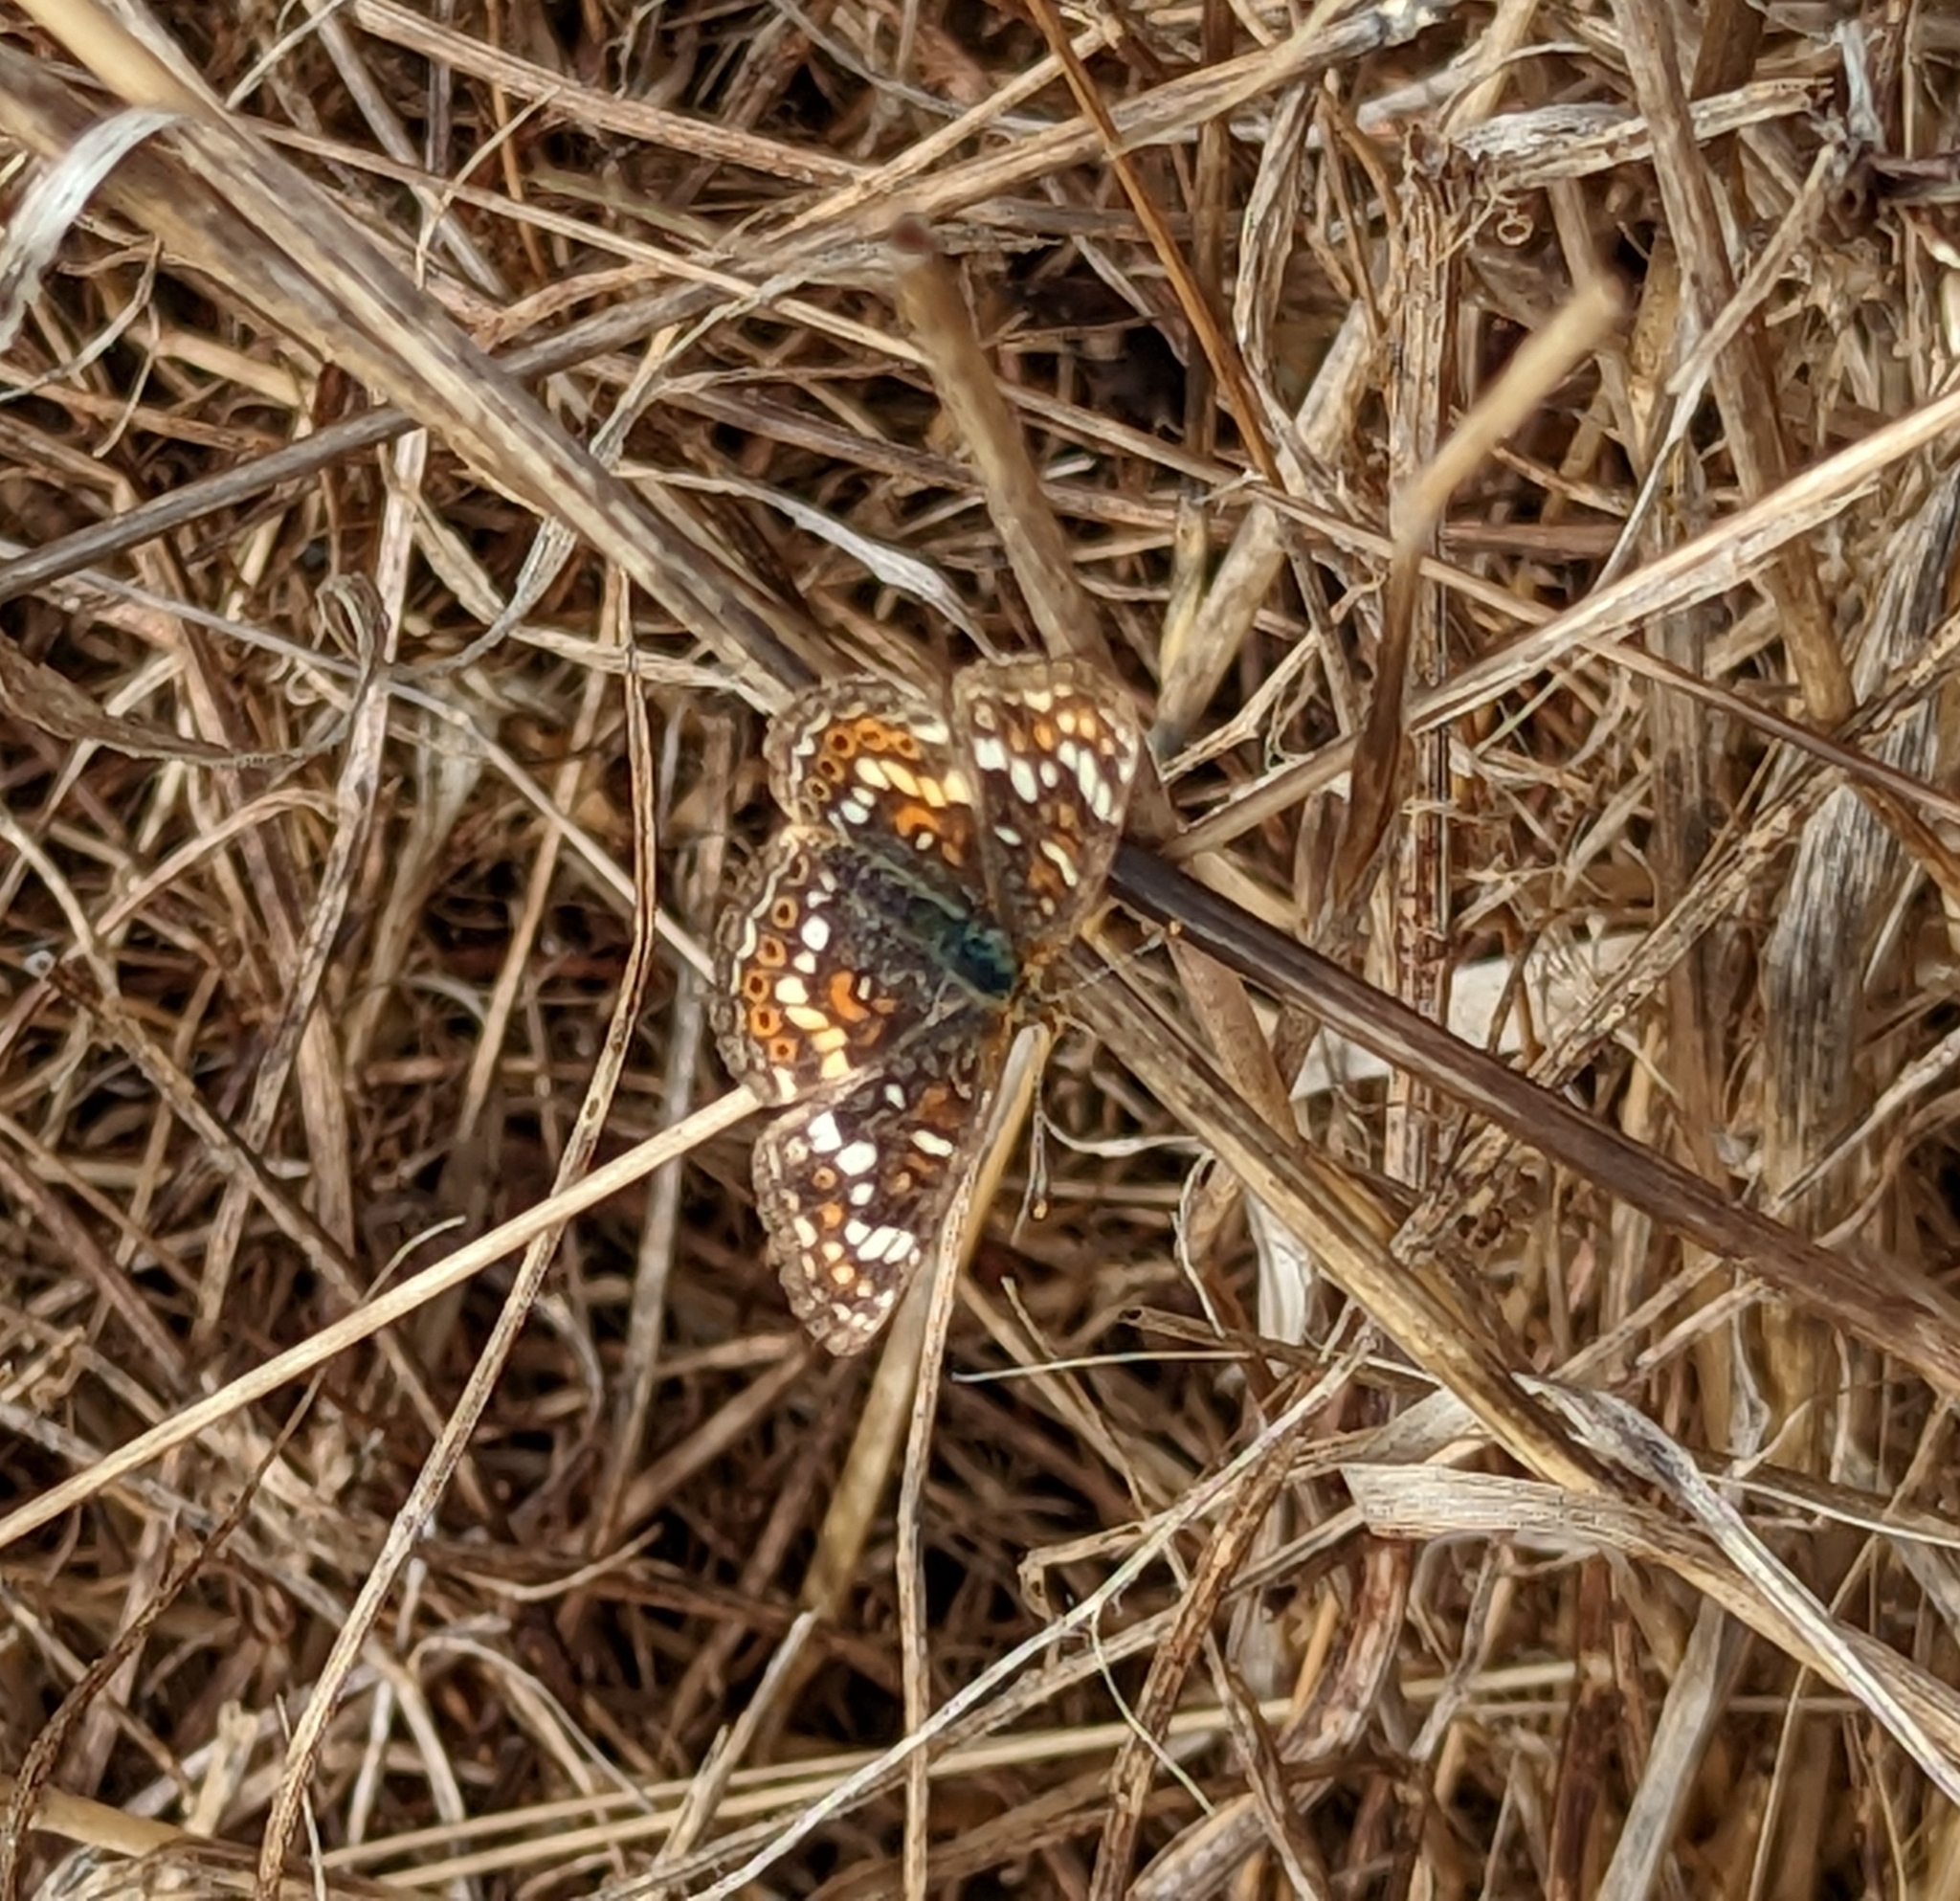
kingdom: Animalia
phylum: Arthropoda
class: Insecta
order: Lepidoptera
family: Nymphalidae
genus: Phyciodes
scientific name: Phyciodes tharos
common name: Pearl crescent
